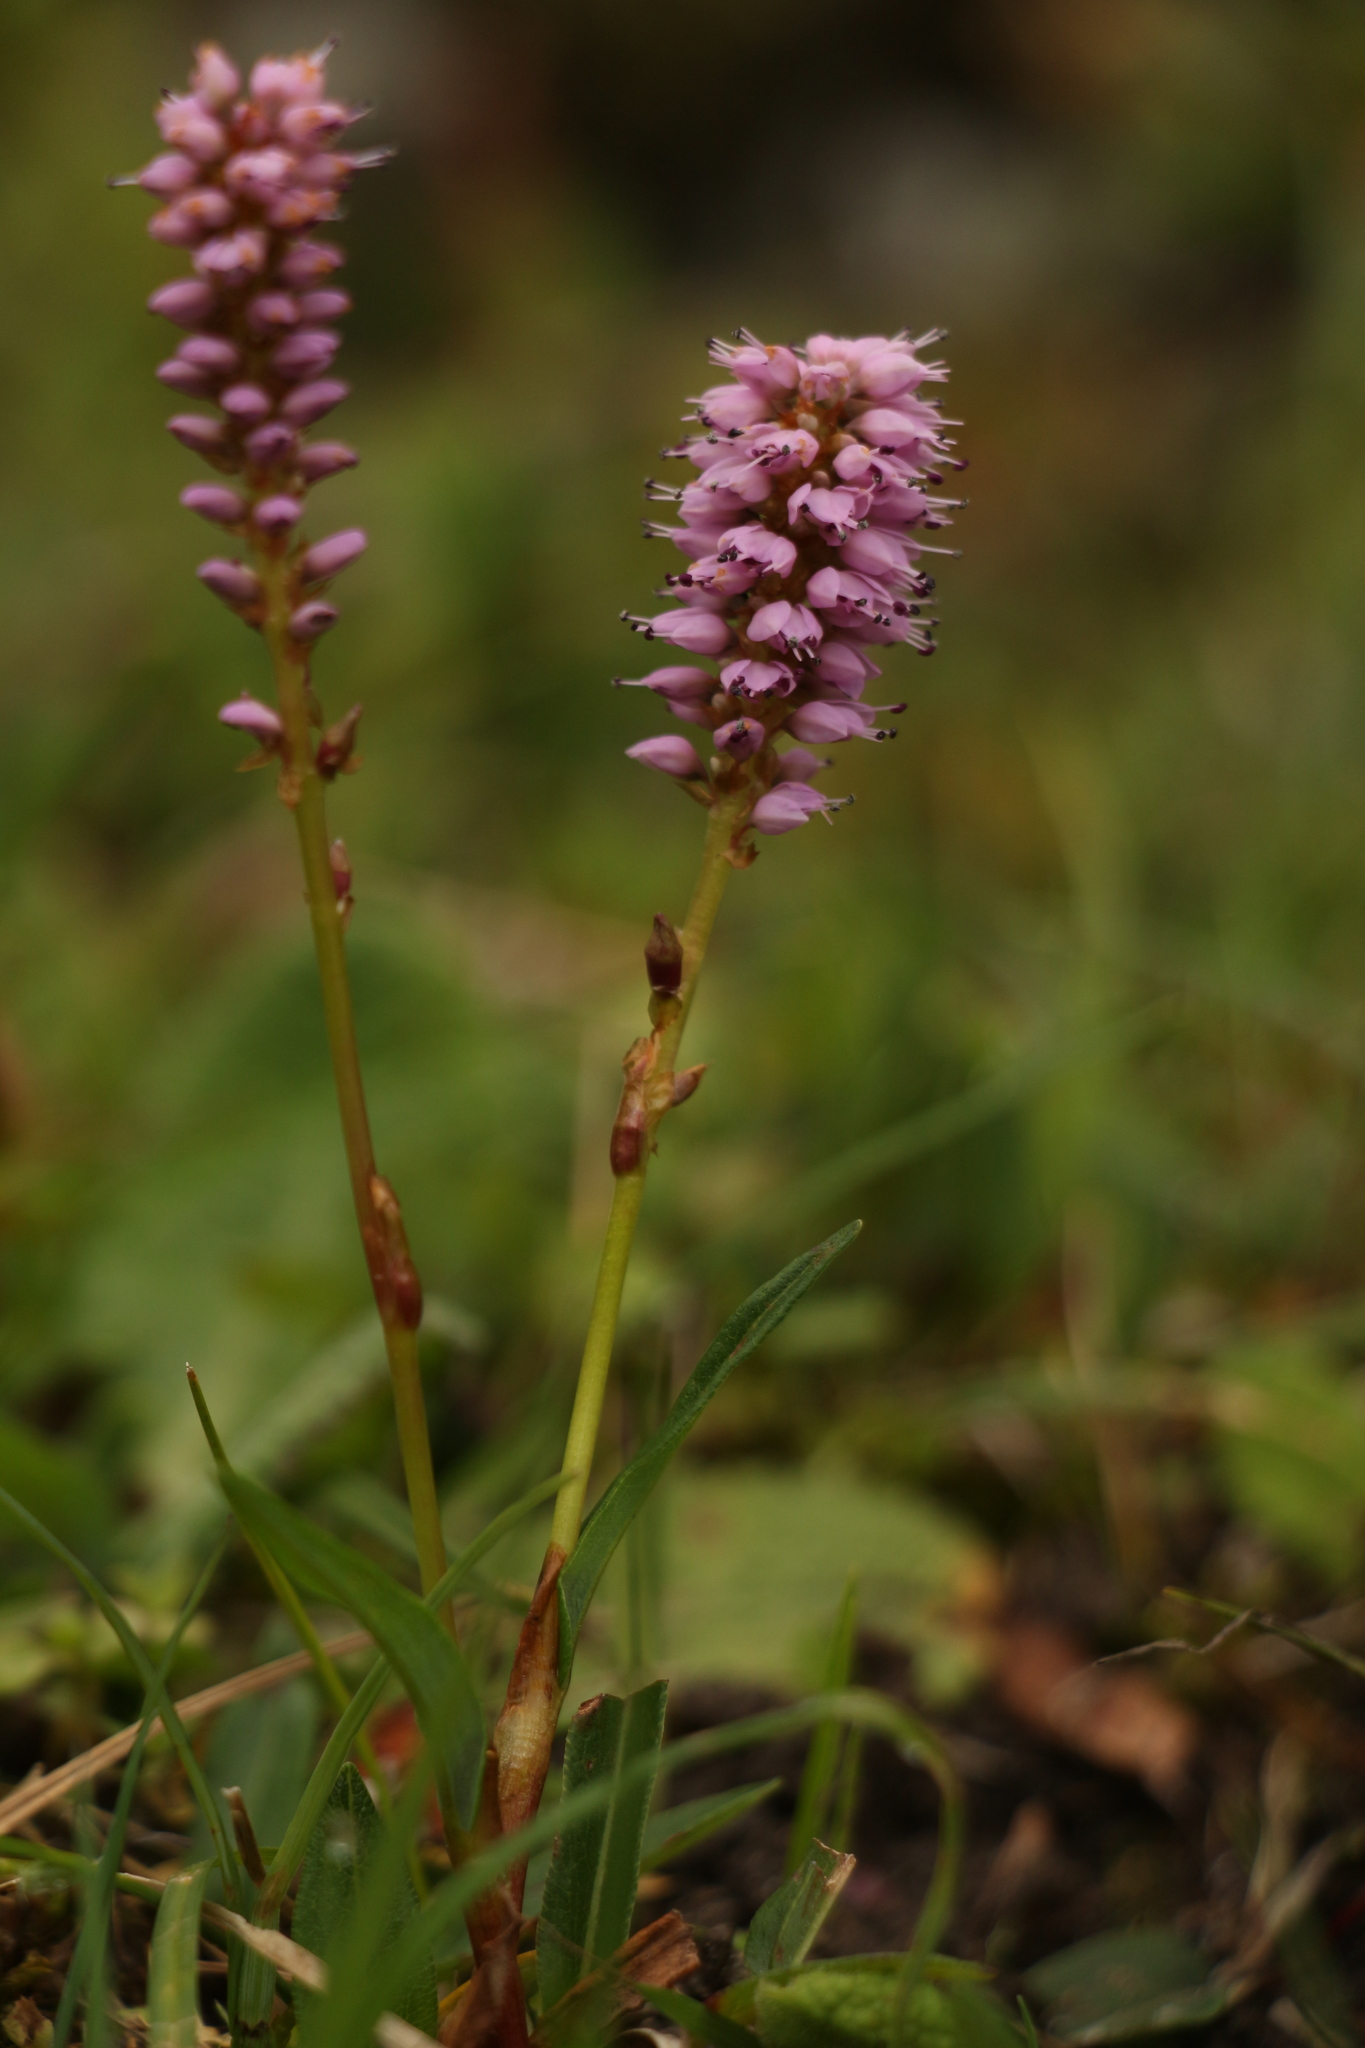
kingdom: Plantae
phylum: Tracheophyta
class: Magnoliopsida
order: Caryophyllales
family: Polygonaceae
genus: Bistorta
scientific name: Bistorta vivipara
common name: Alpine bistort
